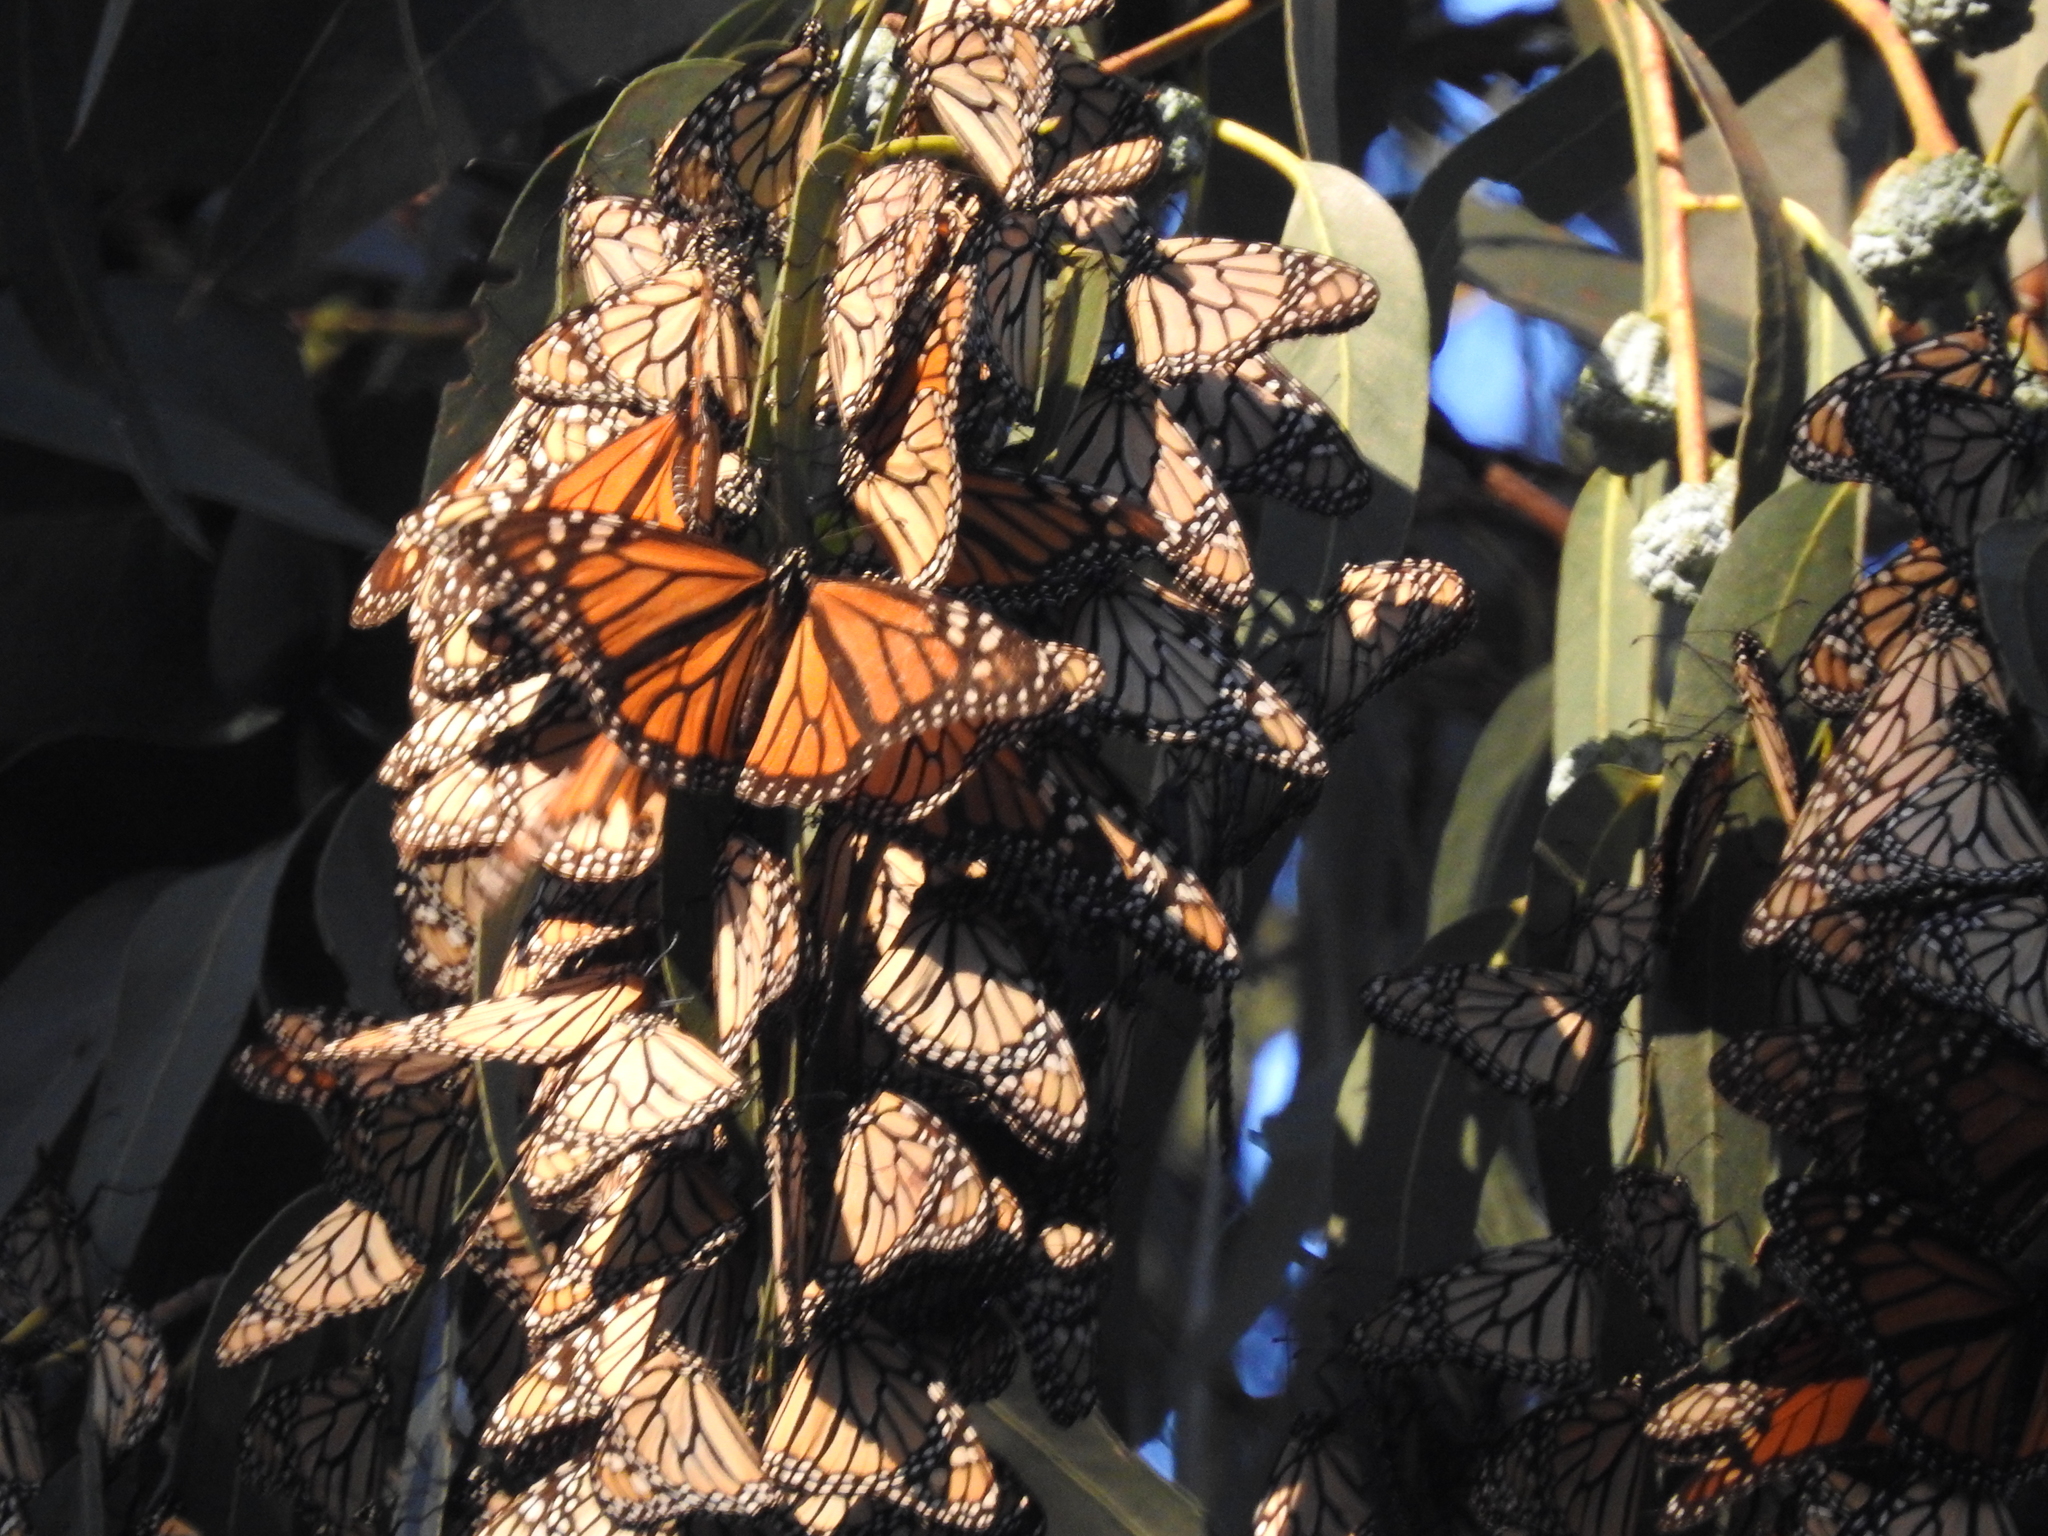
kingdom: Animalia
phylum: Arthropoda
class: Insecta
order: Lepidoptera
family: Nymphalidae
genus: Danaus
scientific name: Danaus plexippus
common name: Monarch
